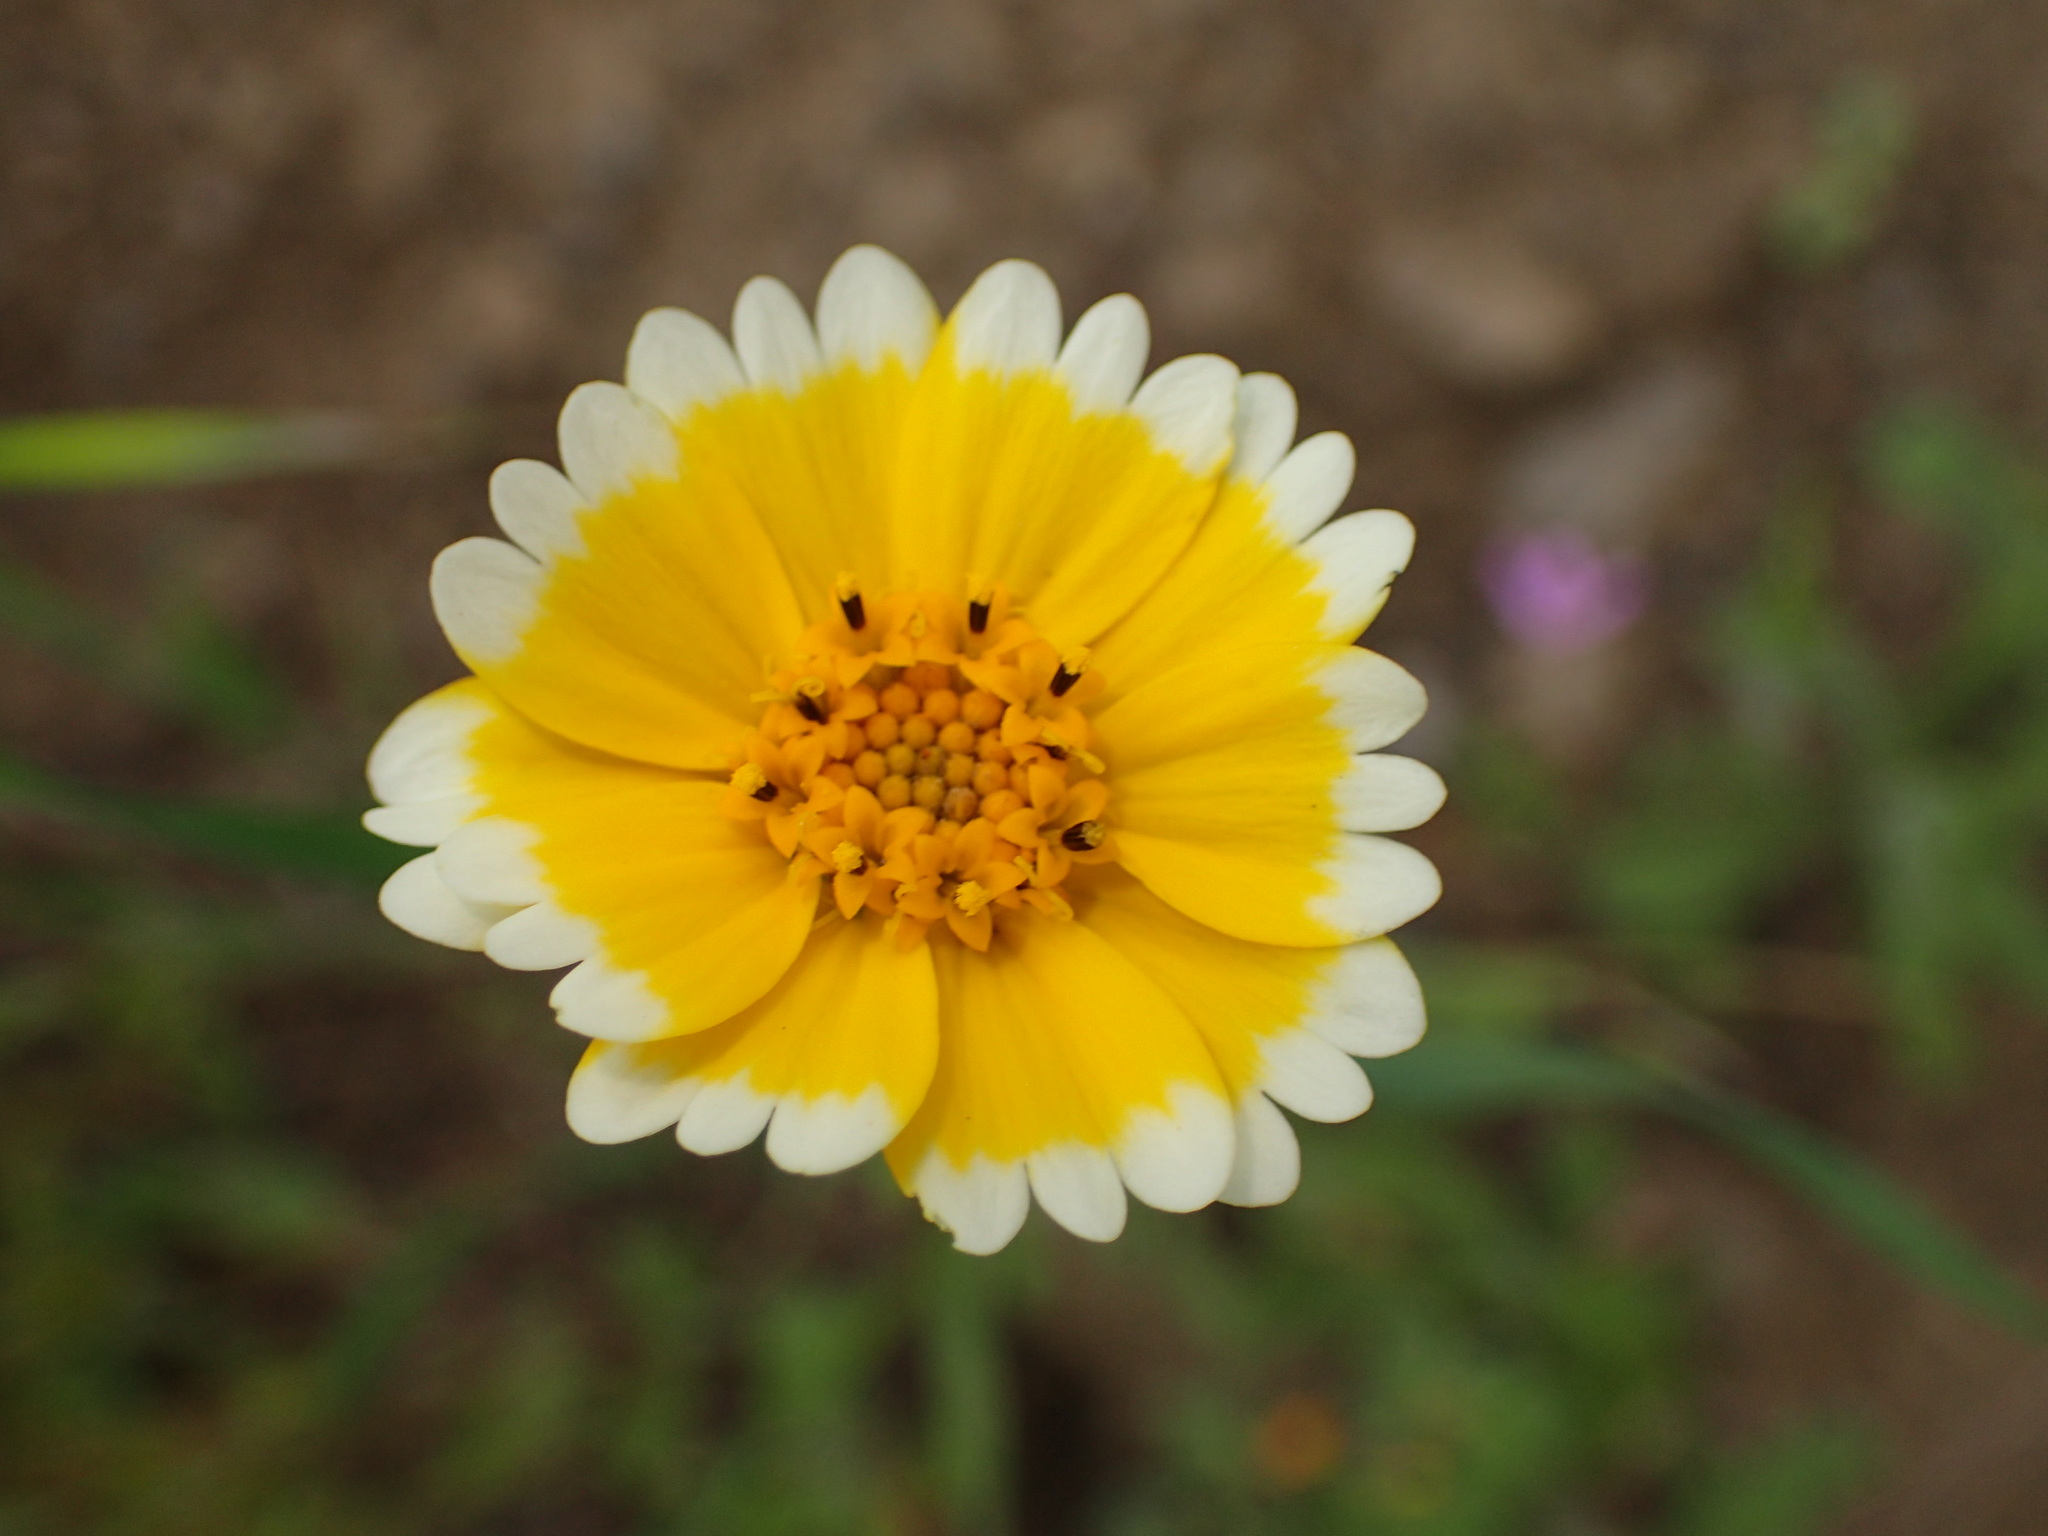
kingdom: Plantae
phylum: Tracheophyta
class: Magnoliopsida
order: Asterales
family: Asteraceae
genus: Layia
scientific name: Layia platyglossa
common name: Tidy-tips
